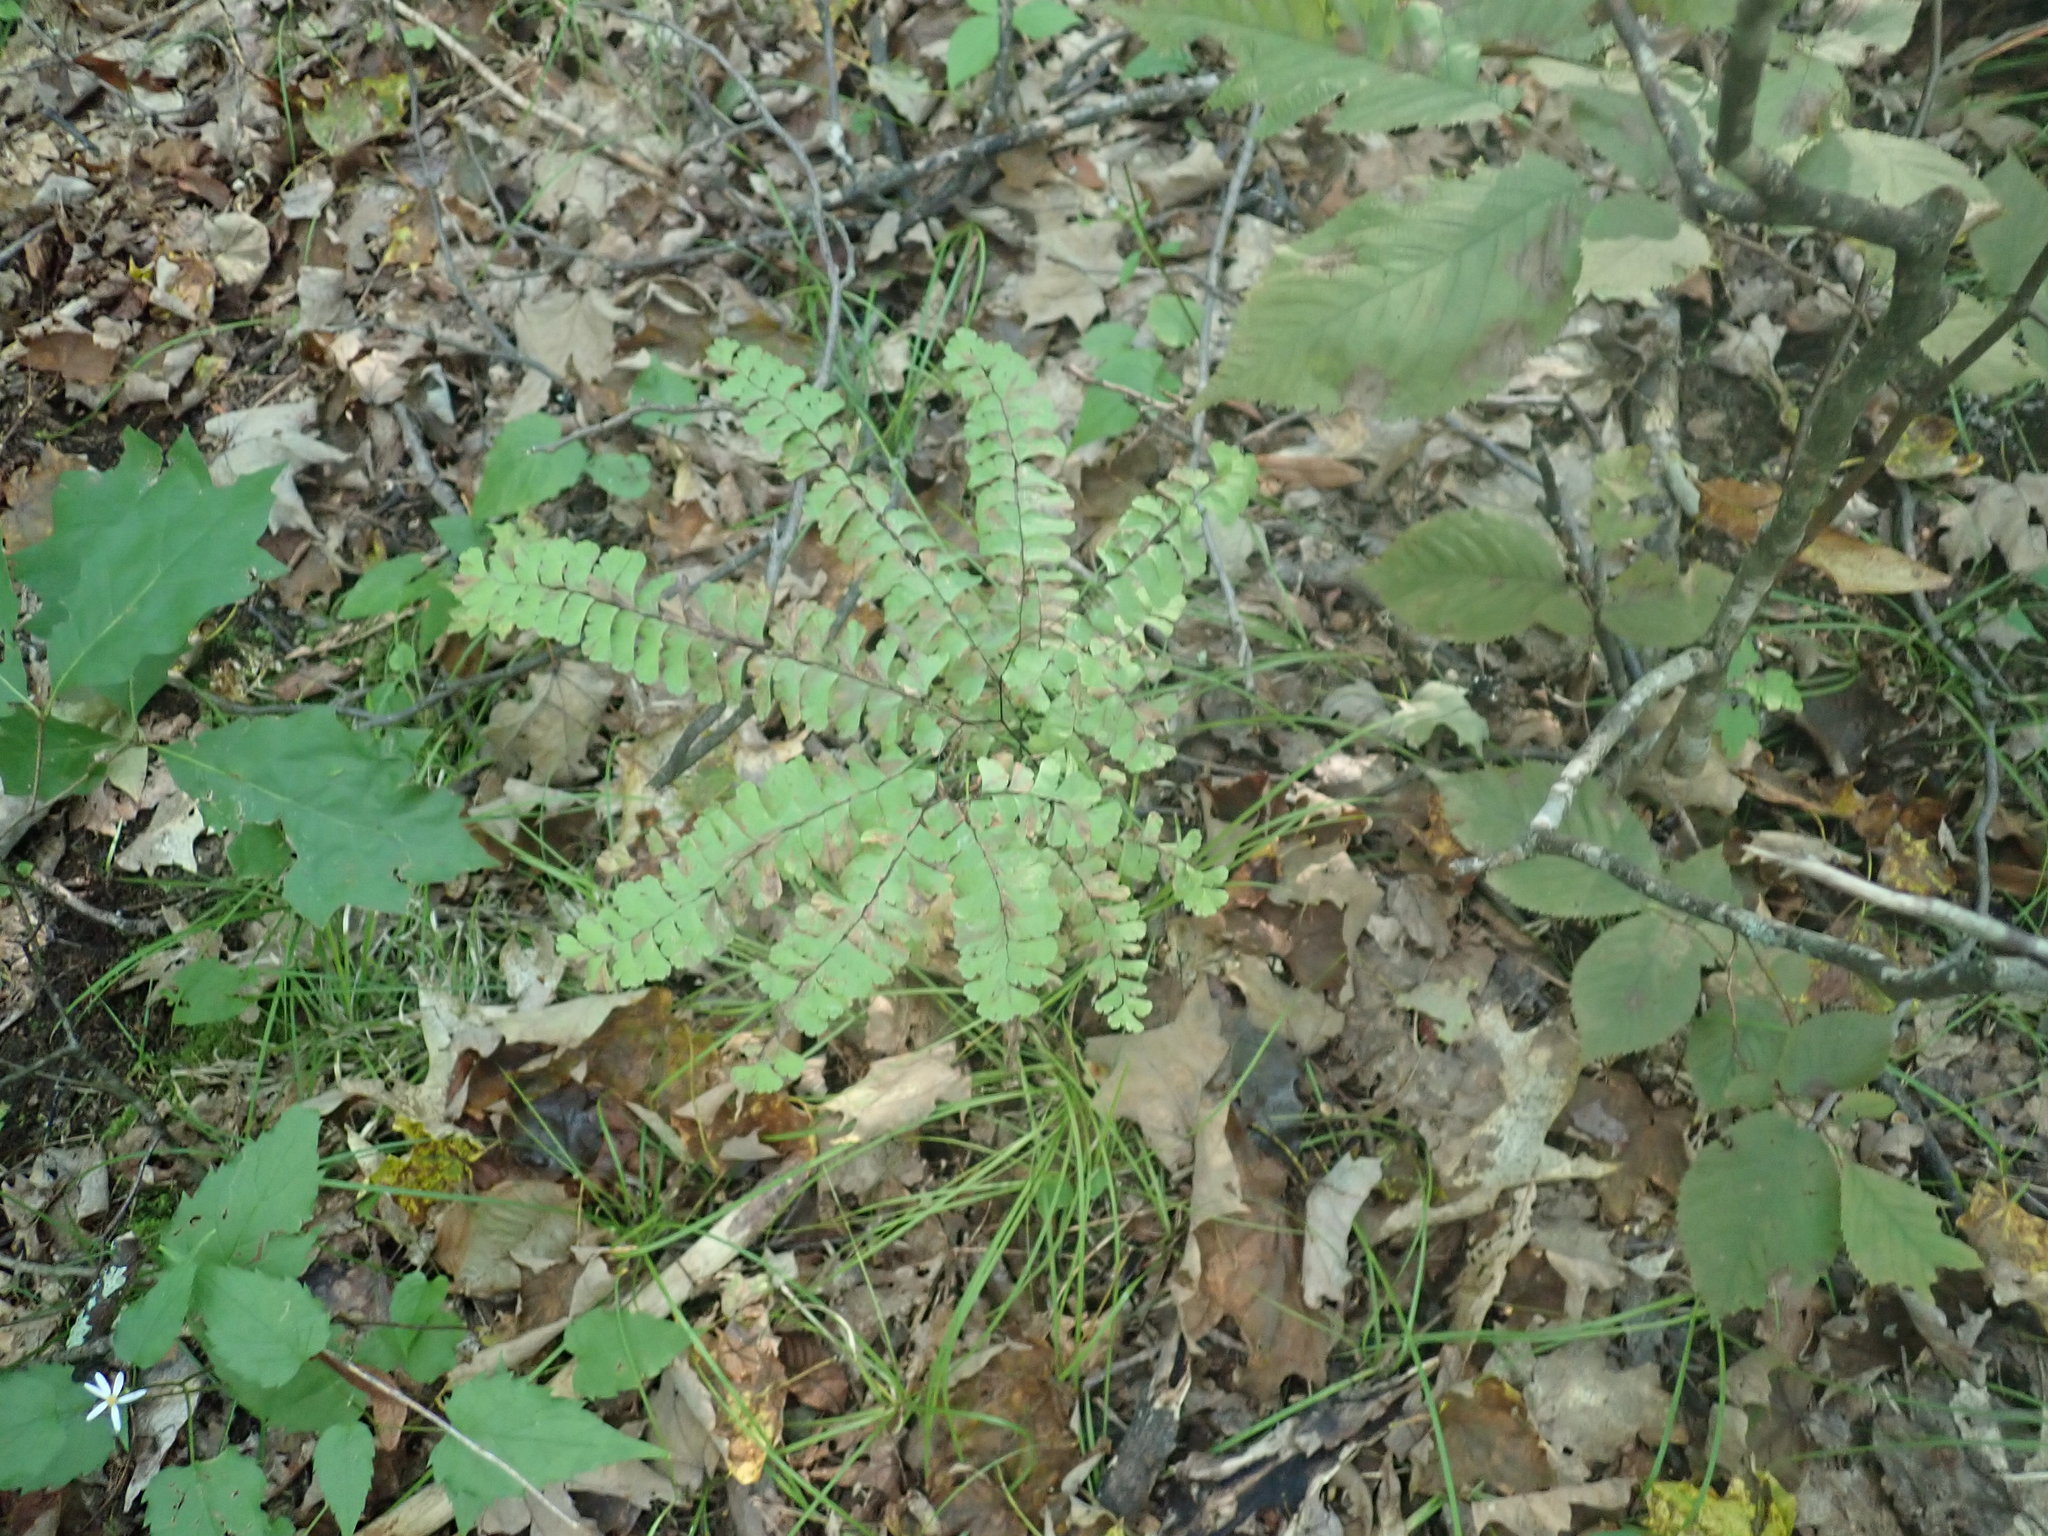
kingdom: Plantae
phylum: Tracheophyta
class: Polypodiopsida
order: Polypodiales
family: Pteridaceae
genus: Adiantum
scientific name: Adiantum pedatum
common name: Five-finger fern
